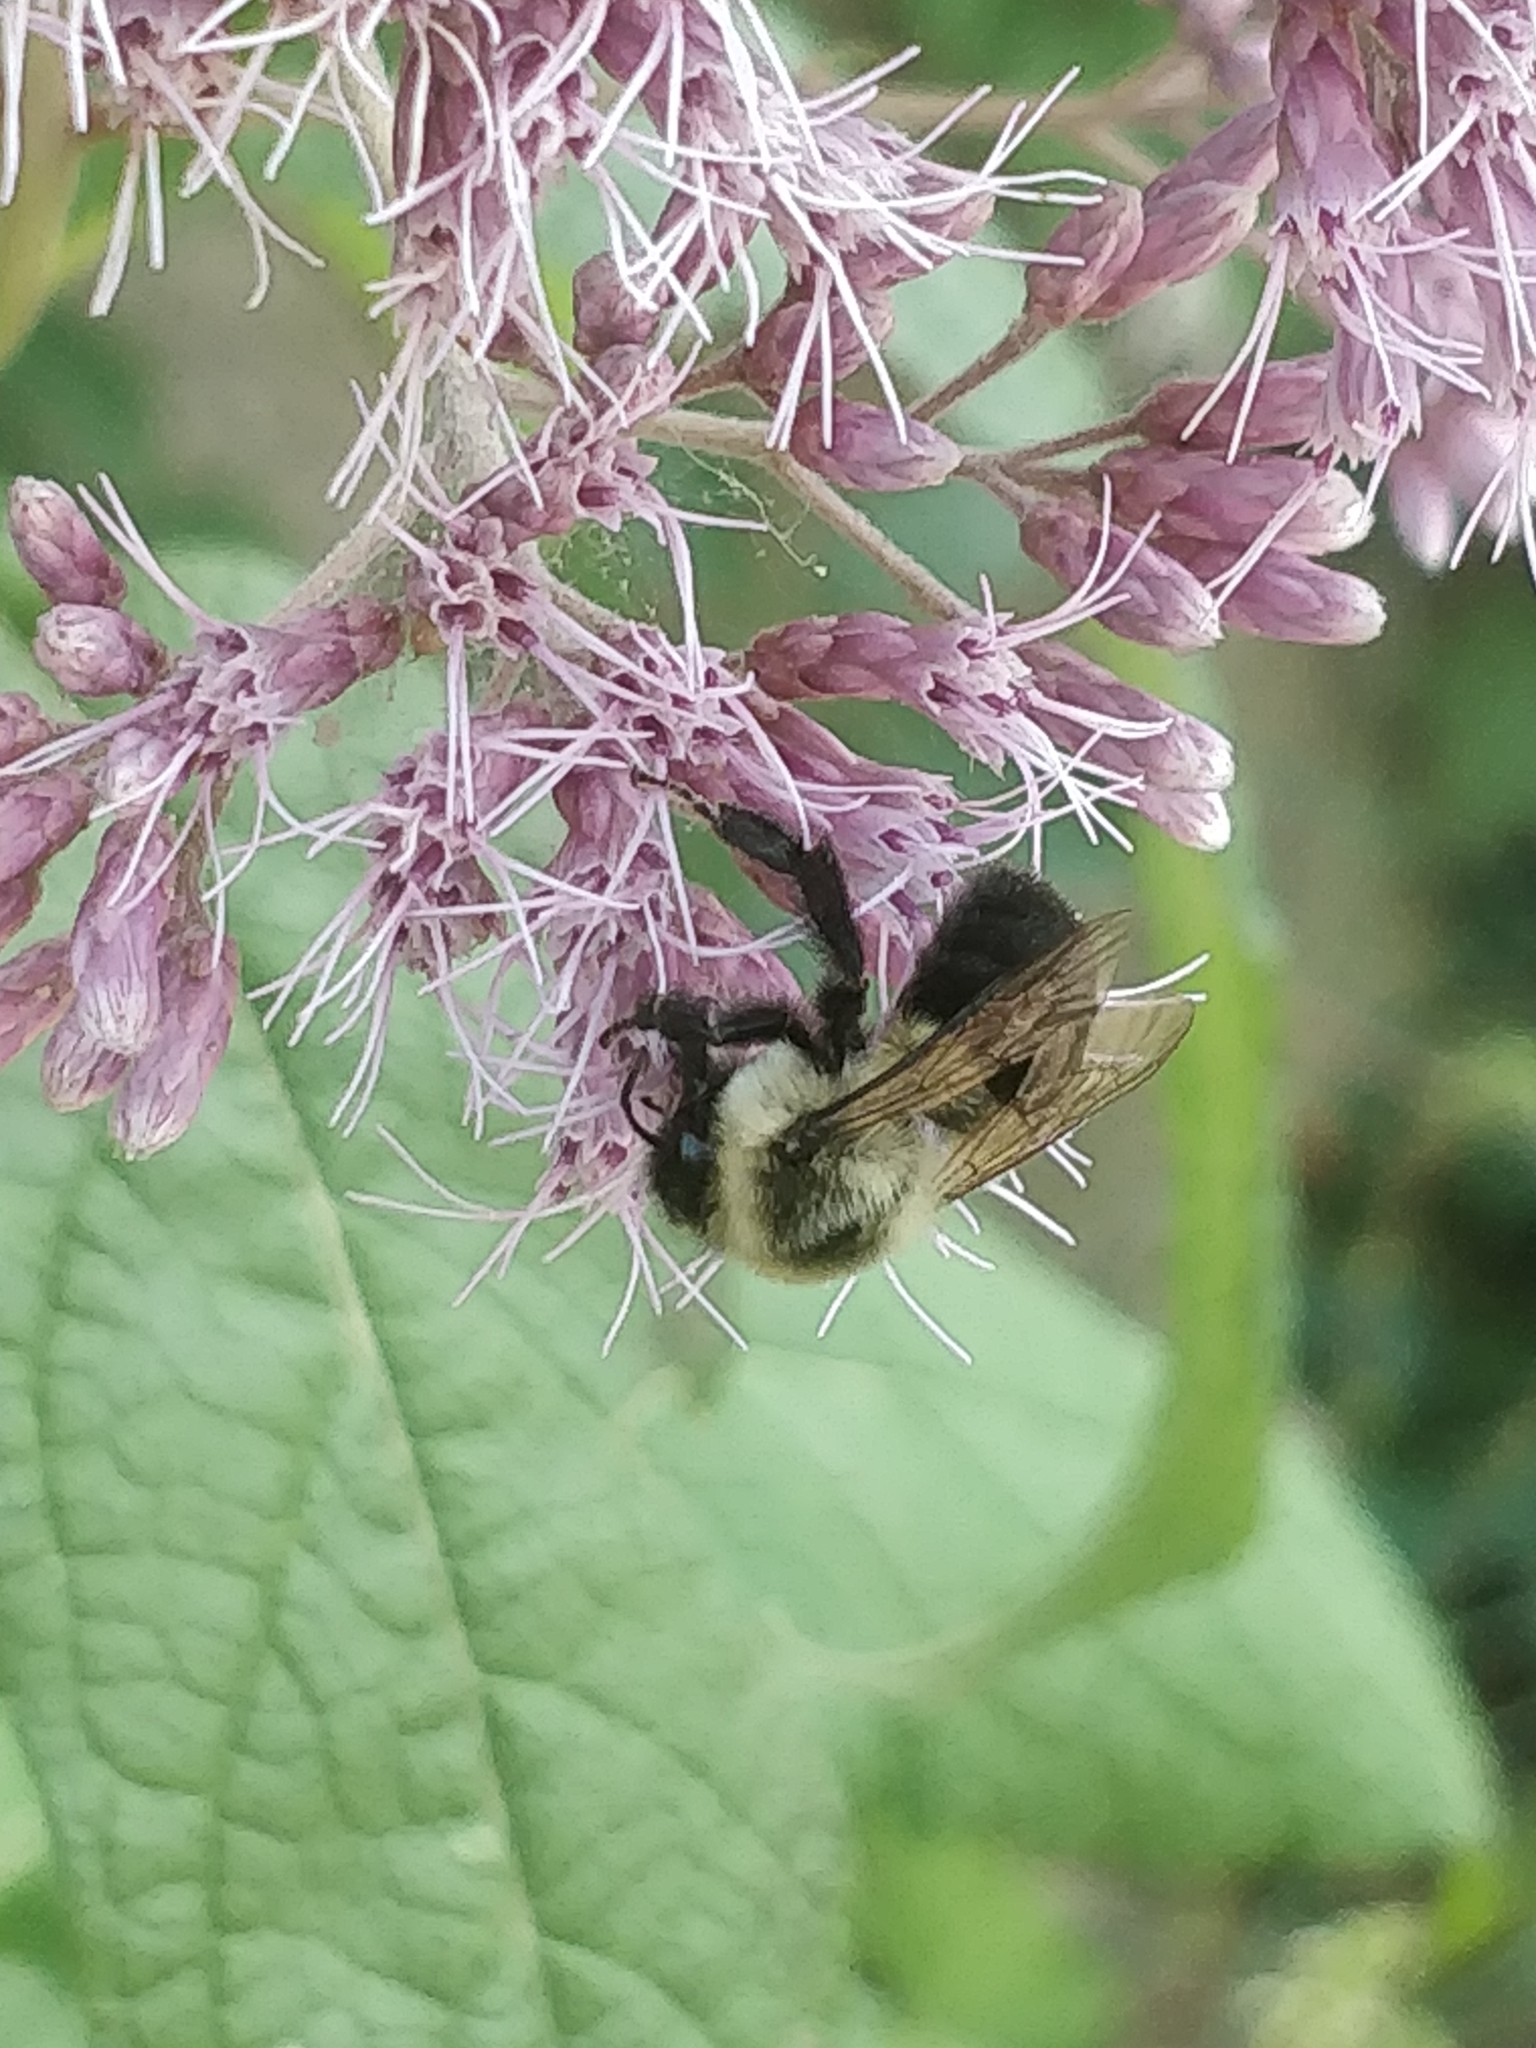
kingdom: Animalia
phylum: Arthropoda
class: Insecta
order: Hymenoptera
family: Apidae
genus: Bombus
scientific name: Bombus impatiens
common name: Common eastern bumble bee
